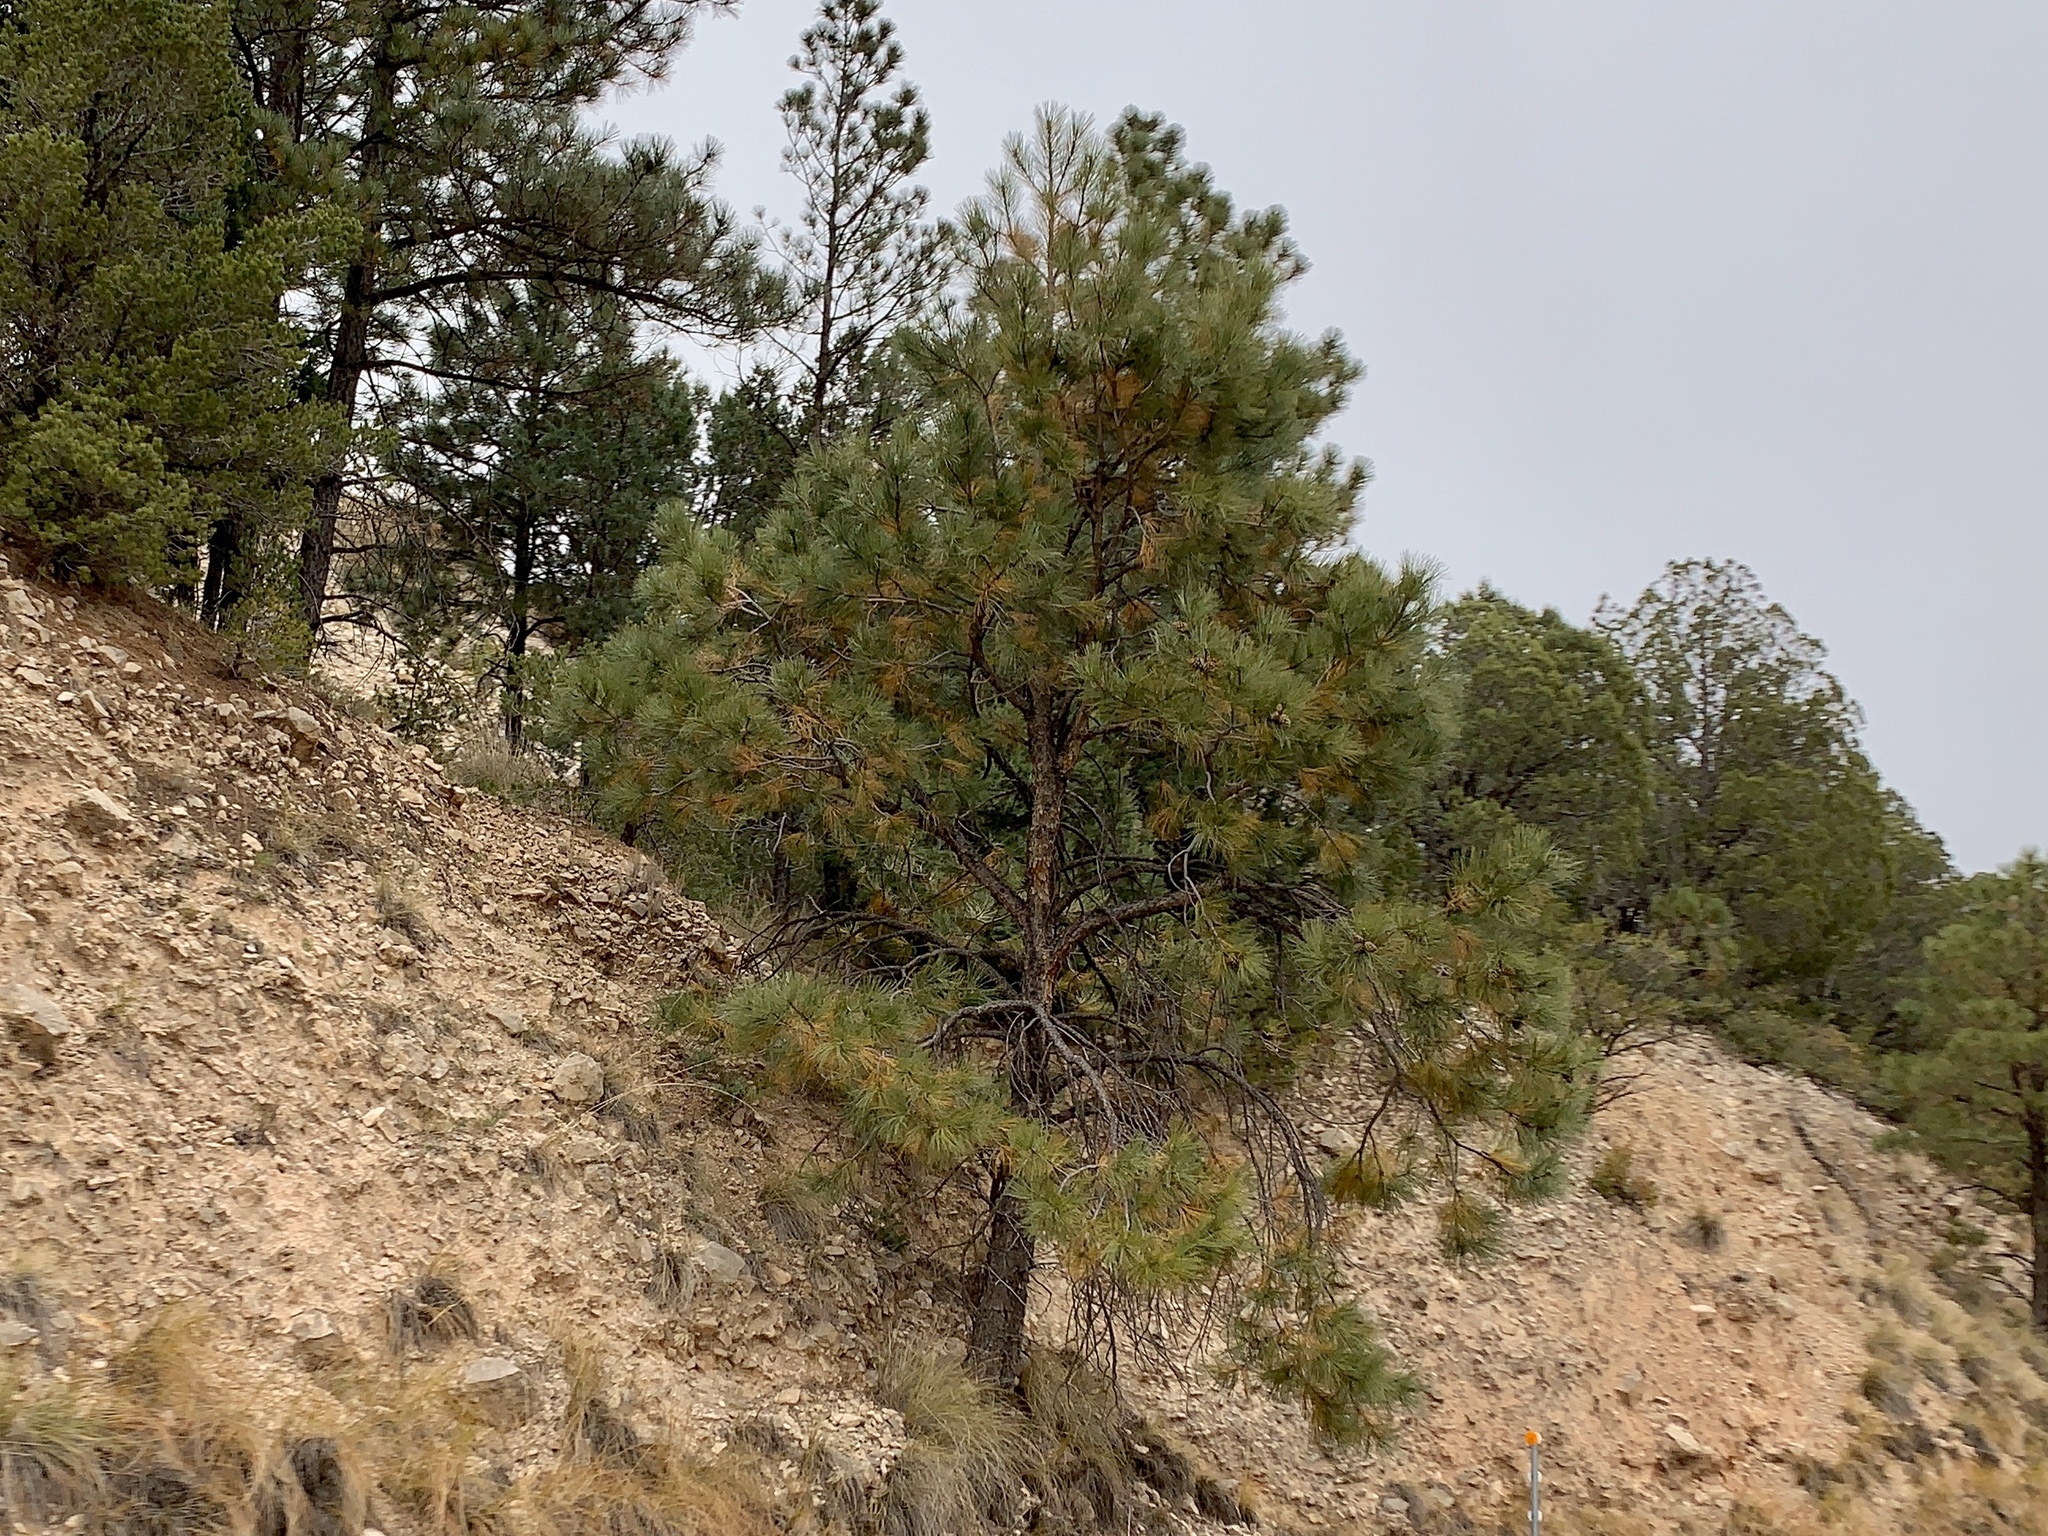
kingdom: Plantae
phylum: Tracheophyta
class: Pinopsida
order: Pinales
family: Pinaceae
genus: Pinus
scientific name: Pinus ponderosa
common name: Western yellow-pine
